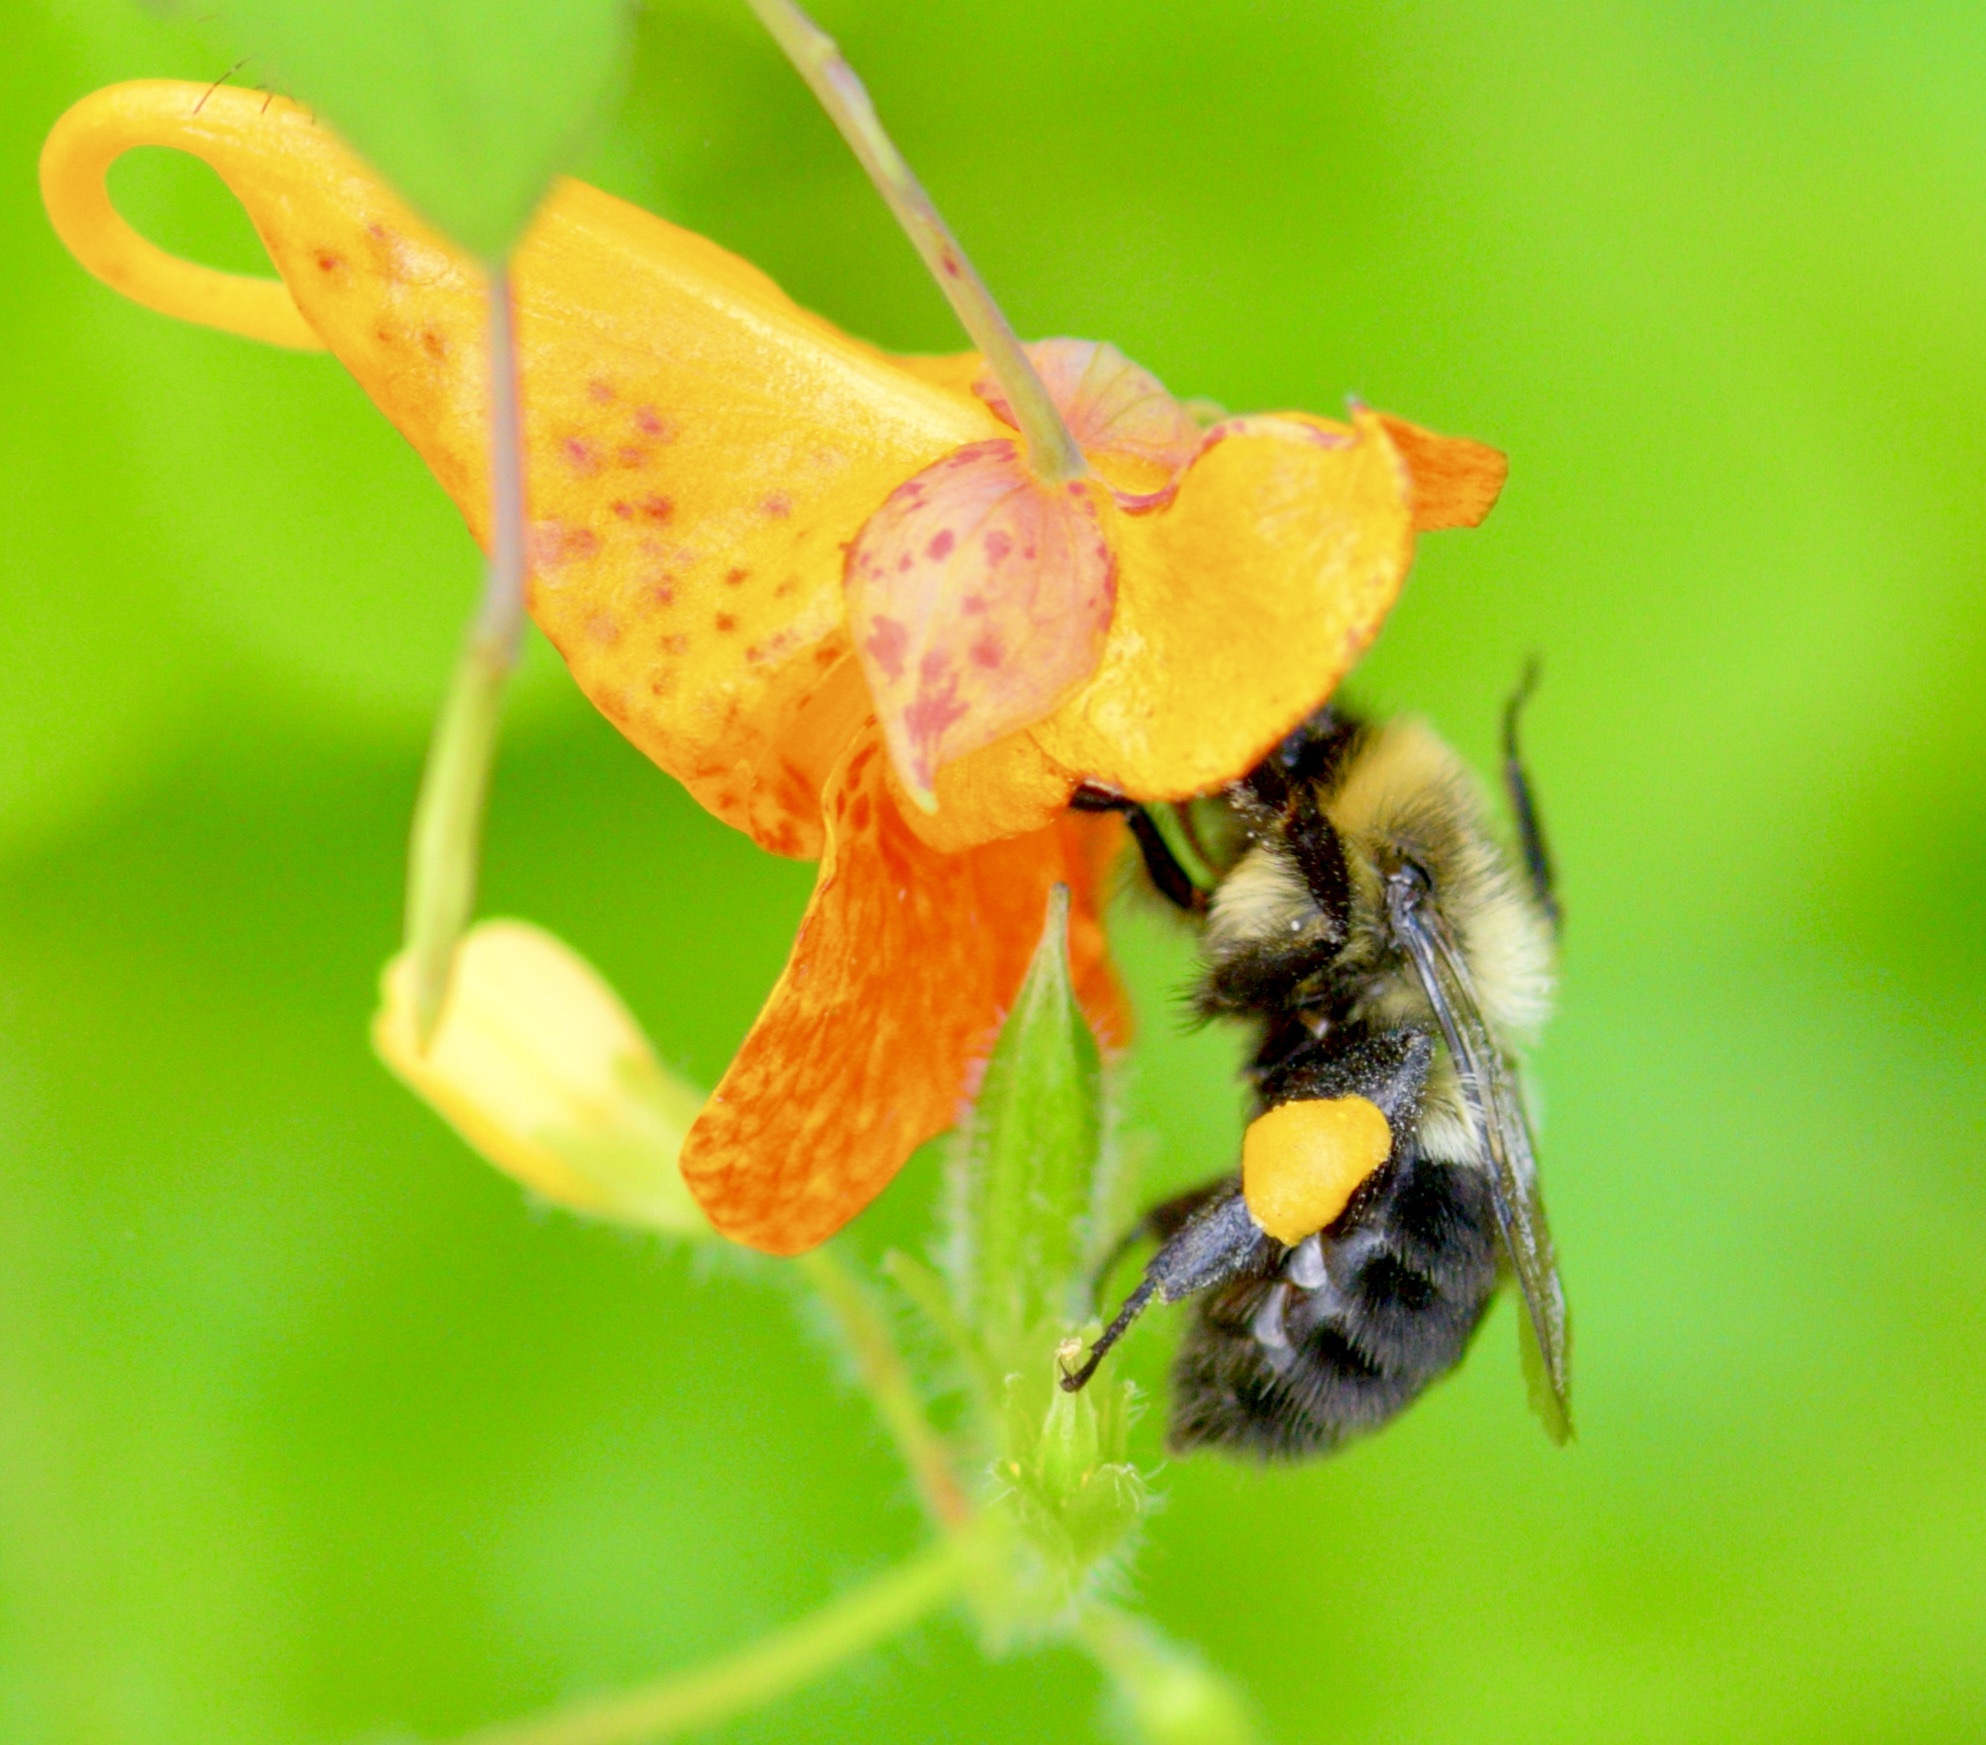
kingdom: Animalia
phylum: Arthropoda
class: Insecta
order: Hymenoptera
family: Apidae
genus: Bombus
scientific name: Bombus impatiens
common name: Common eastern bumble bee
